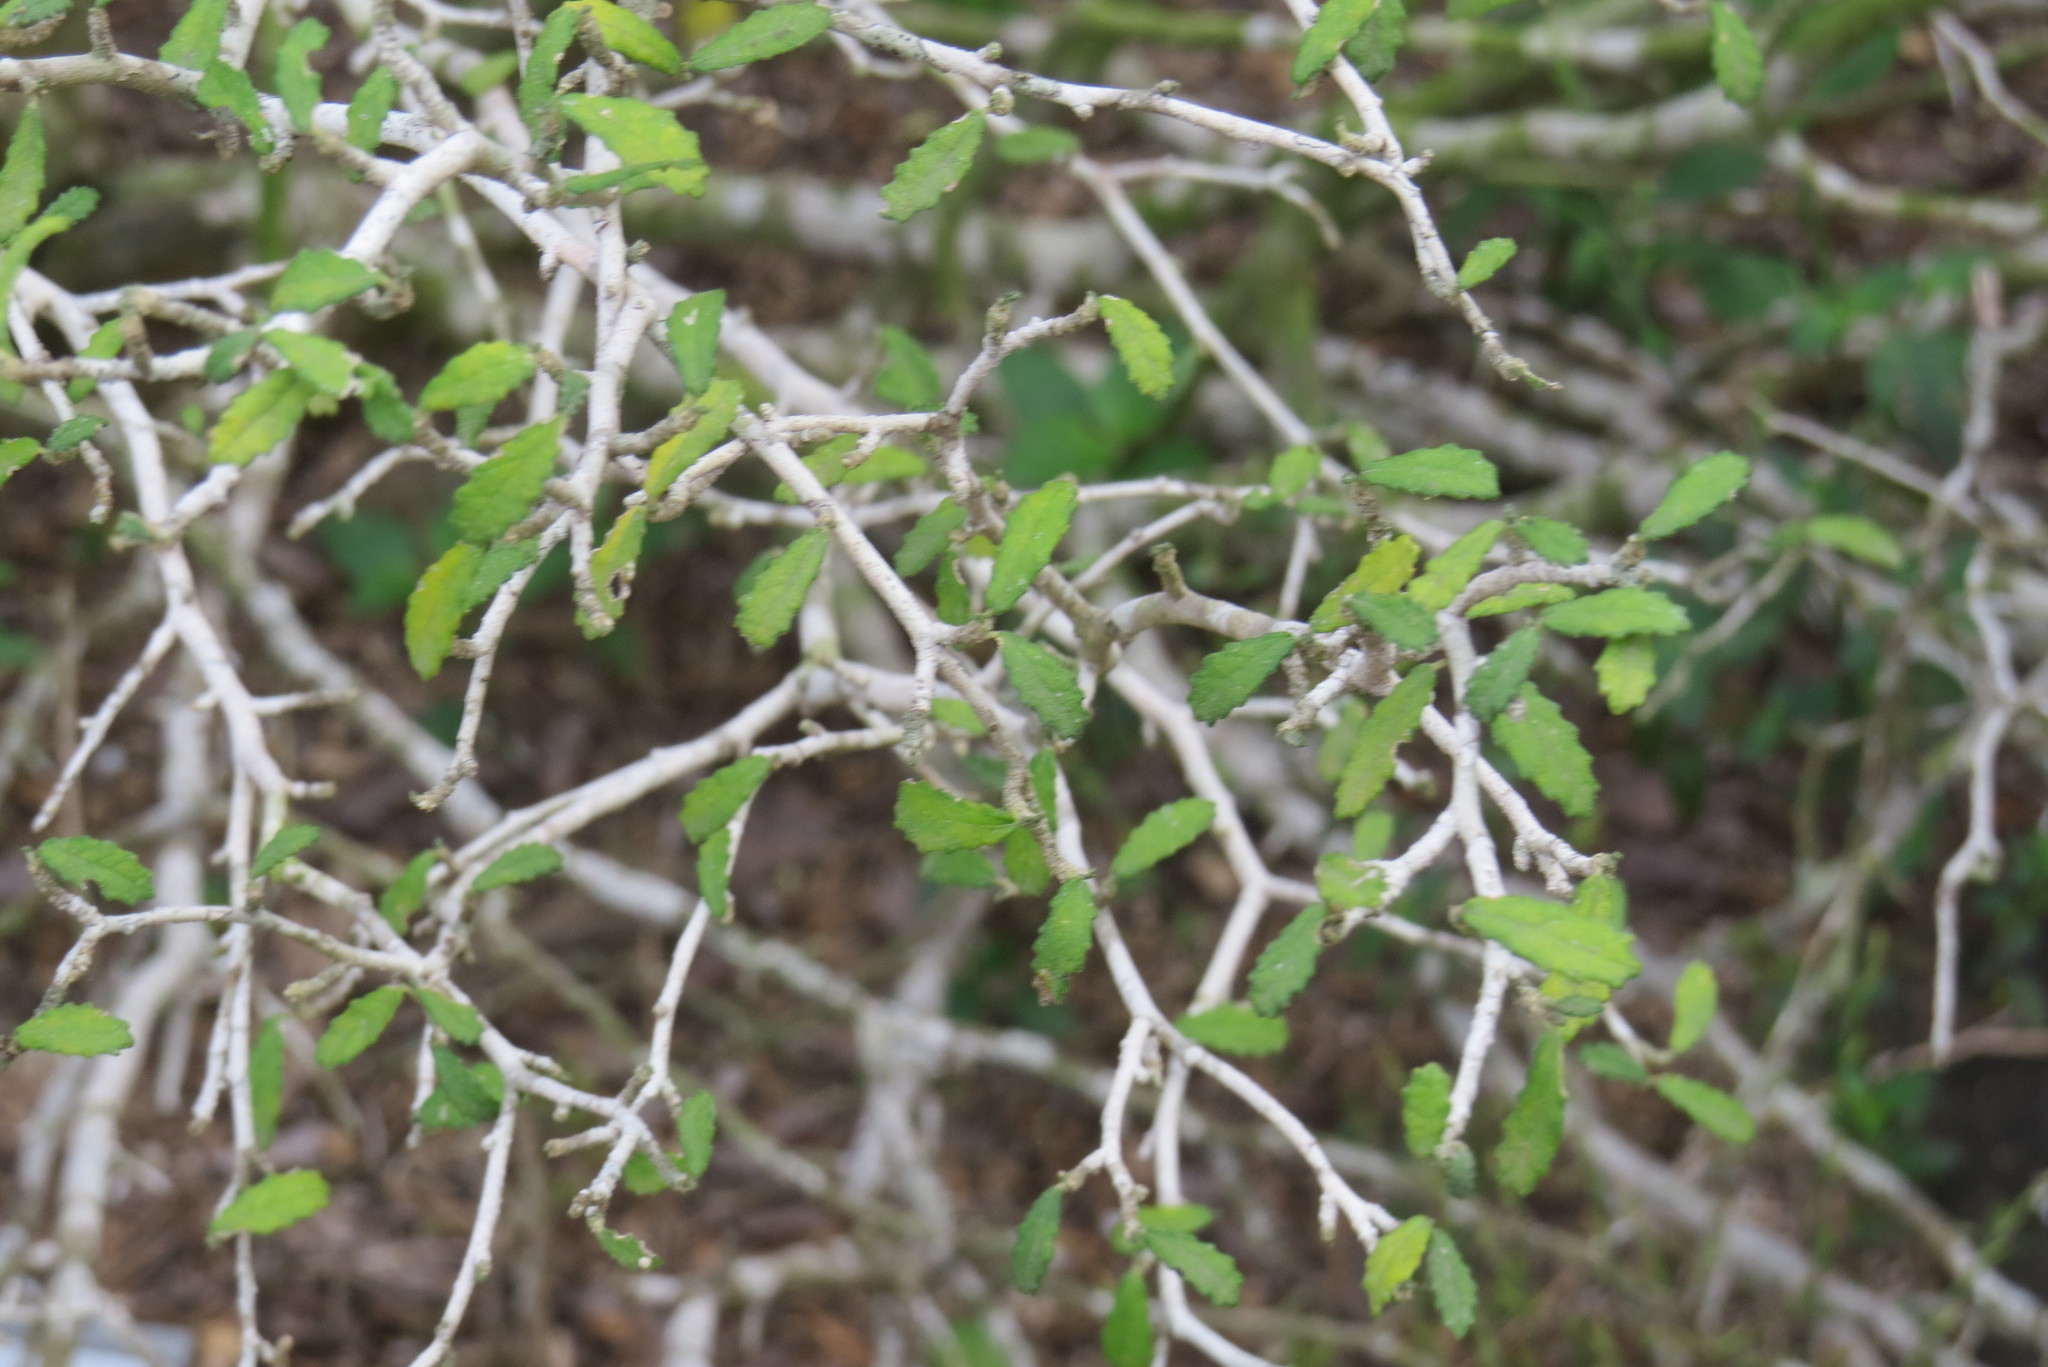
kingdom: Plantae
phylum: Tracheophyta
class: Magnoliopsida
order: Malpighiales
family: Euphorbiaceae
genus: Bernardia
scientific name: Bernardia myricifolia
